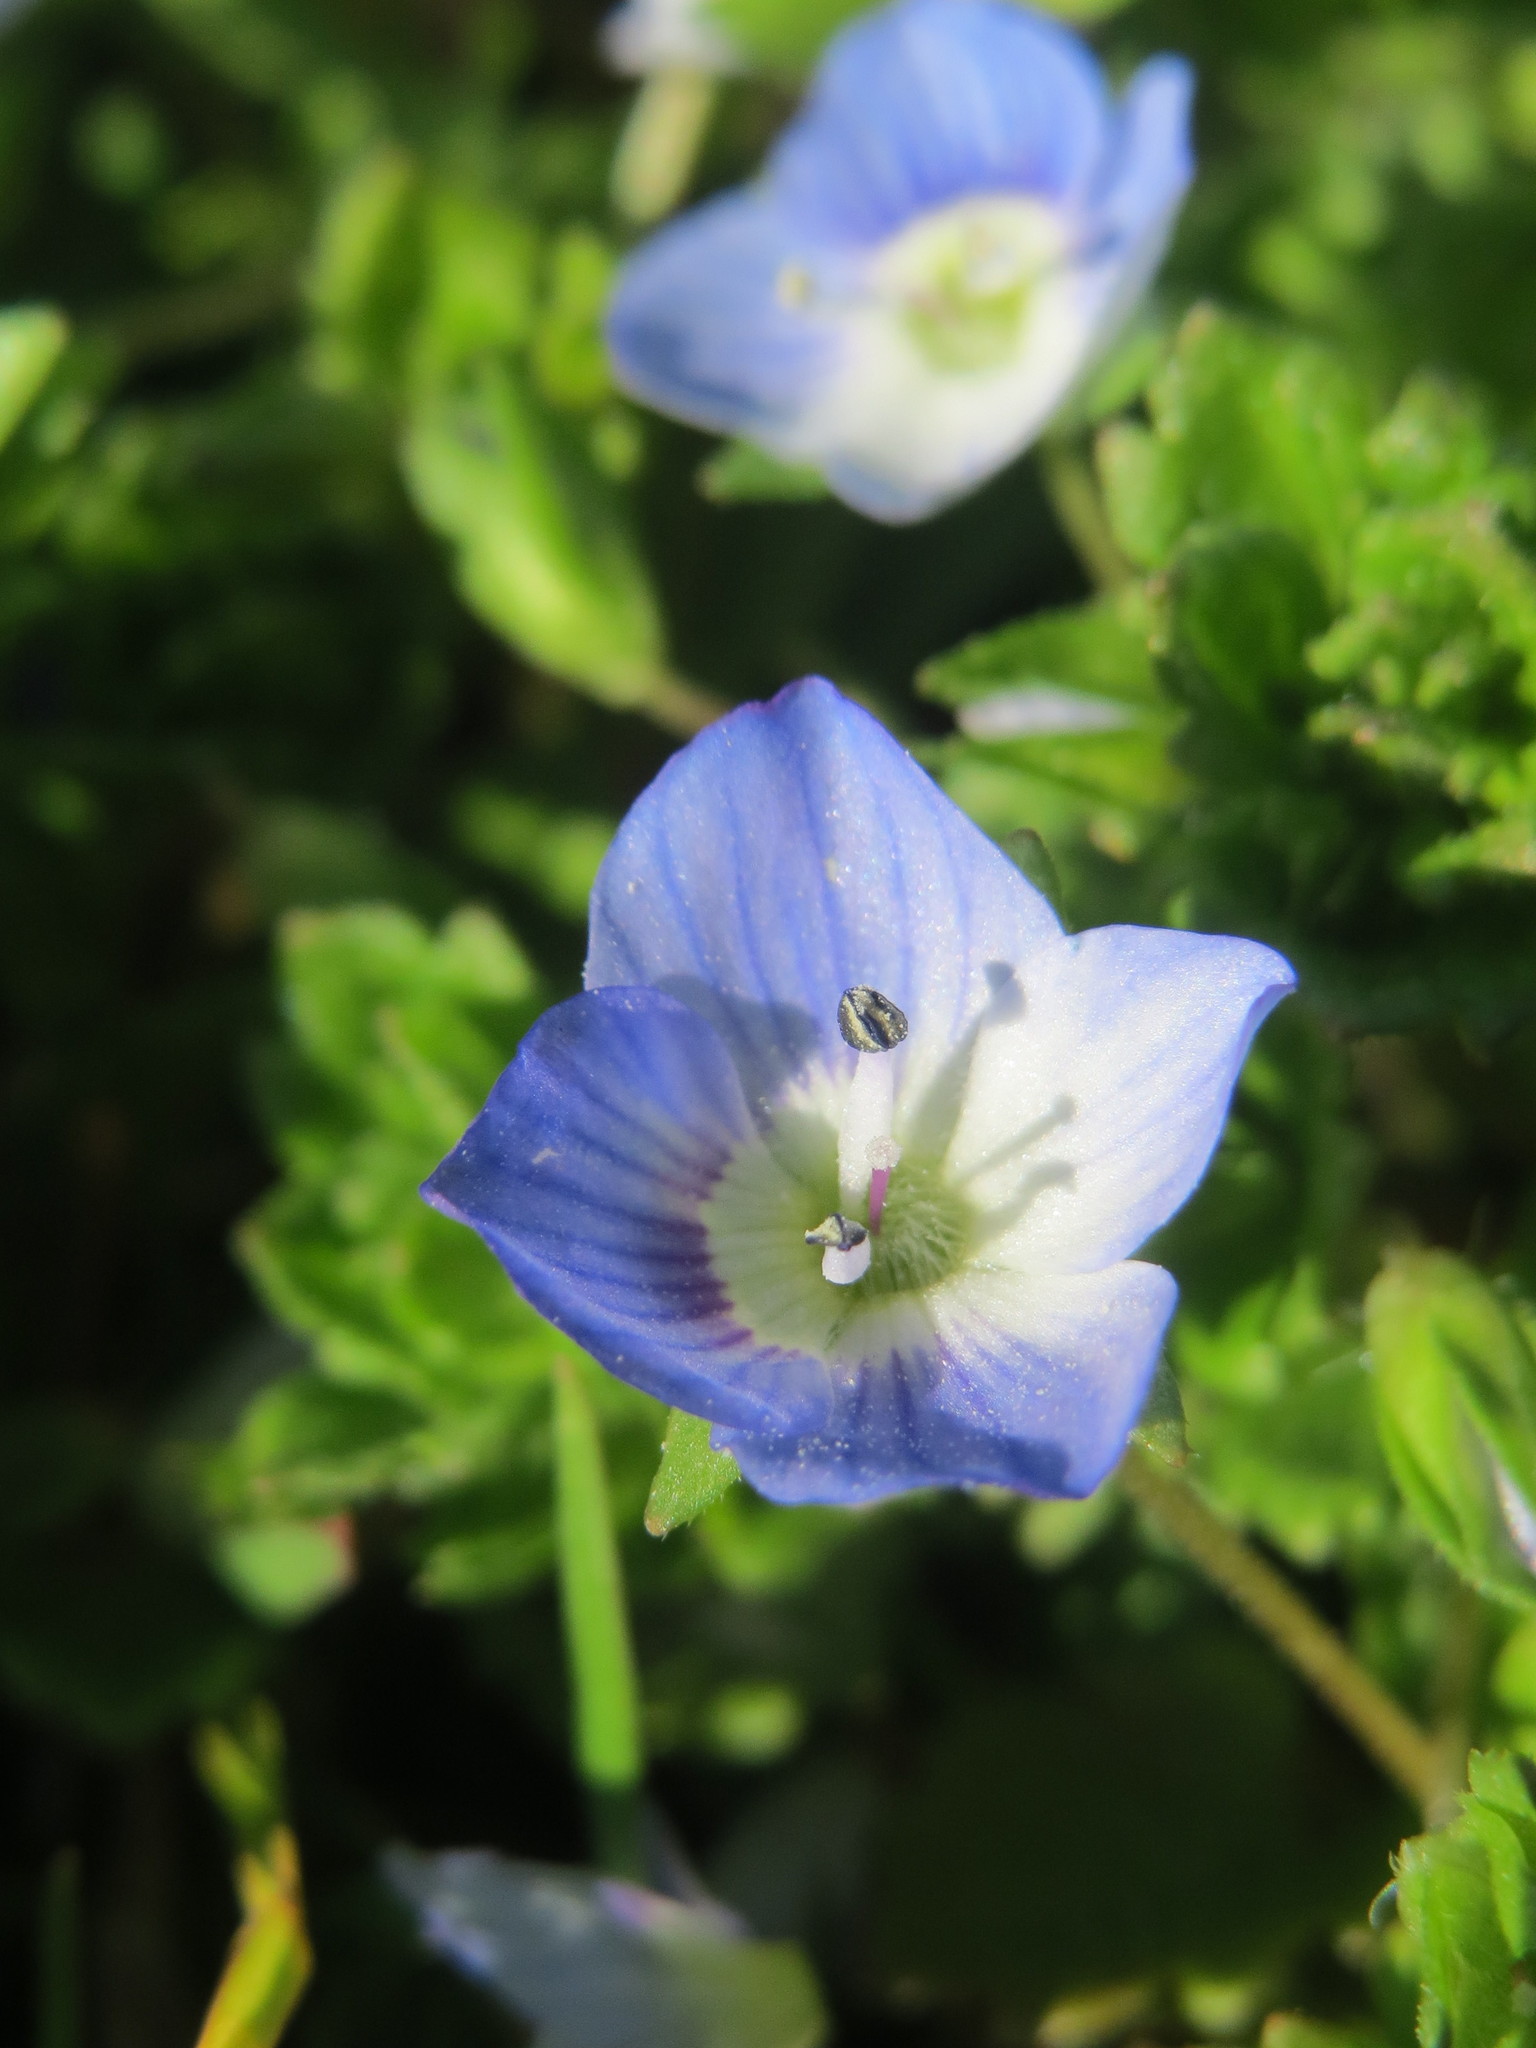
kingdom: Plantae
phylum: Tracheophyta
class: Magnoliopsida
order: Lamiales
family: Plantaginaceae
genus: Veronica
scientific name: Veronica persica
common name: Common field-speedwell
